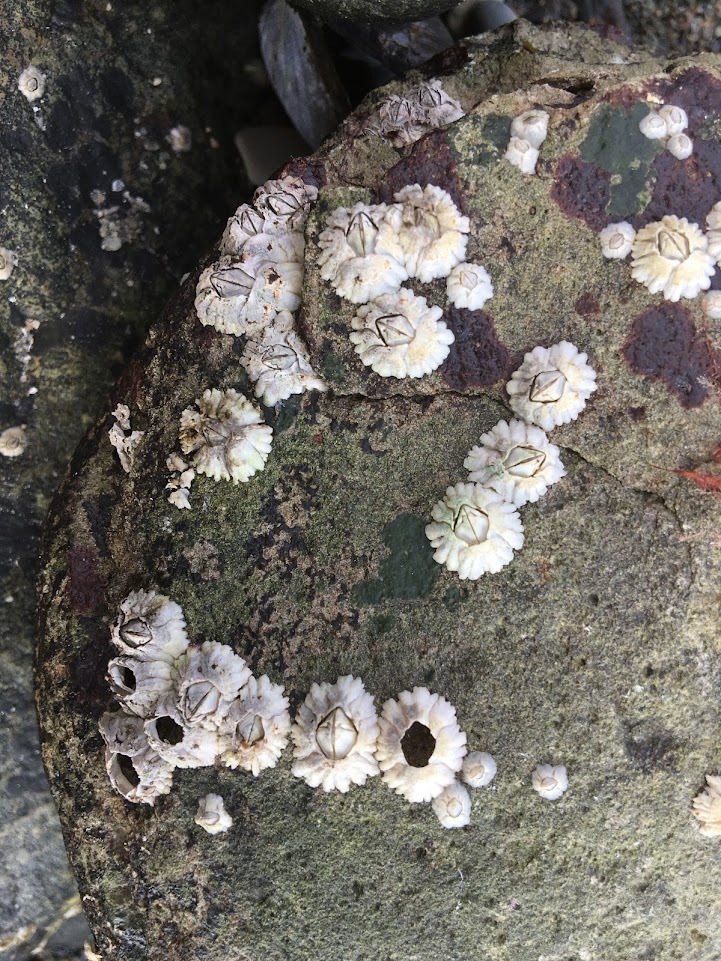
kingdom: Animalia
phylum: Arthropoda
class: Maxillopoda
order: Sessilia
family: Archaeobalanidae
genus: Semibalanus
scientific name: Semibalanus balanoides
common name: Acorn barnacle
